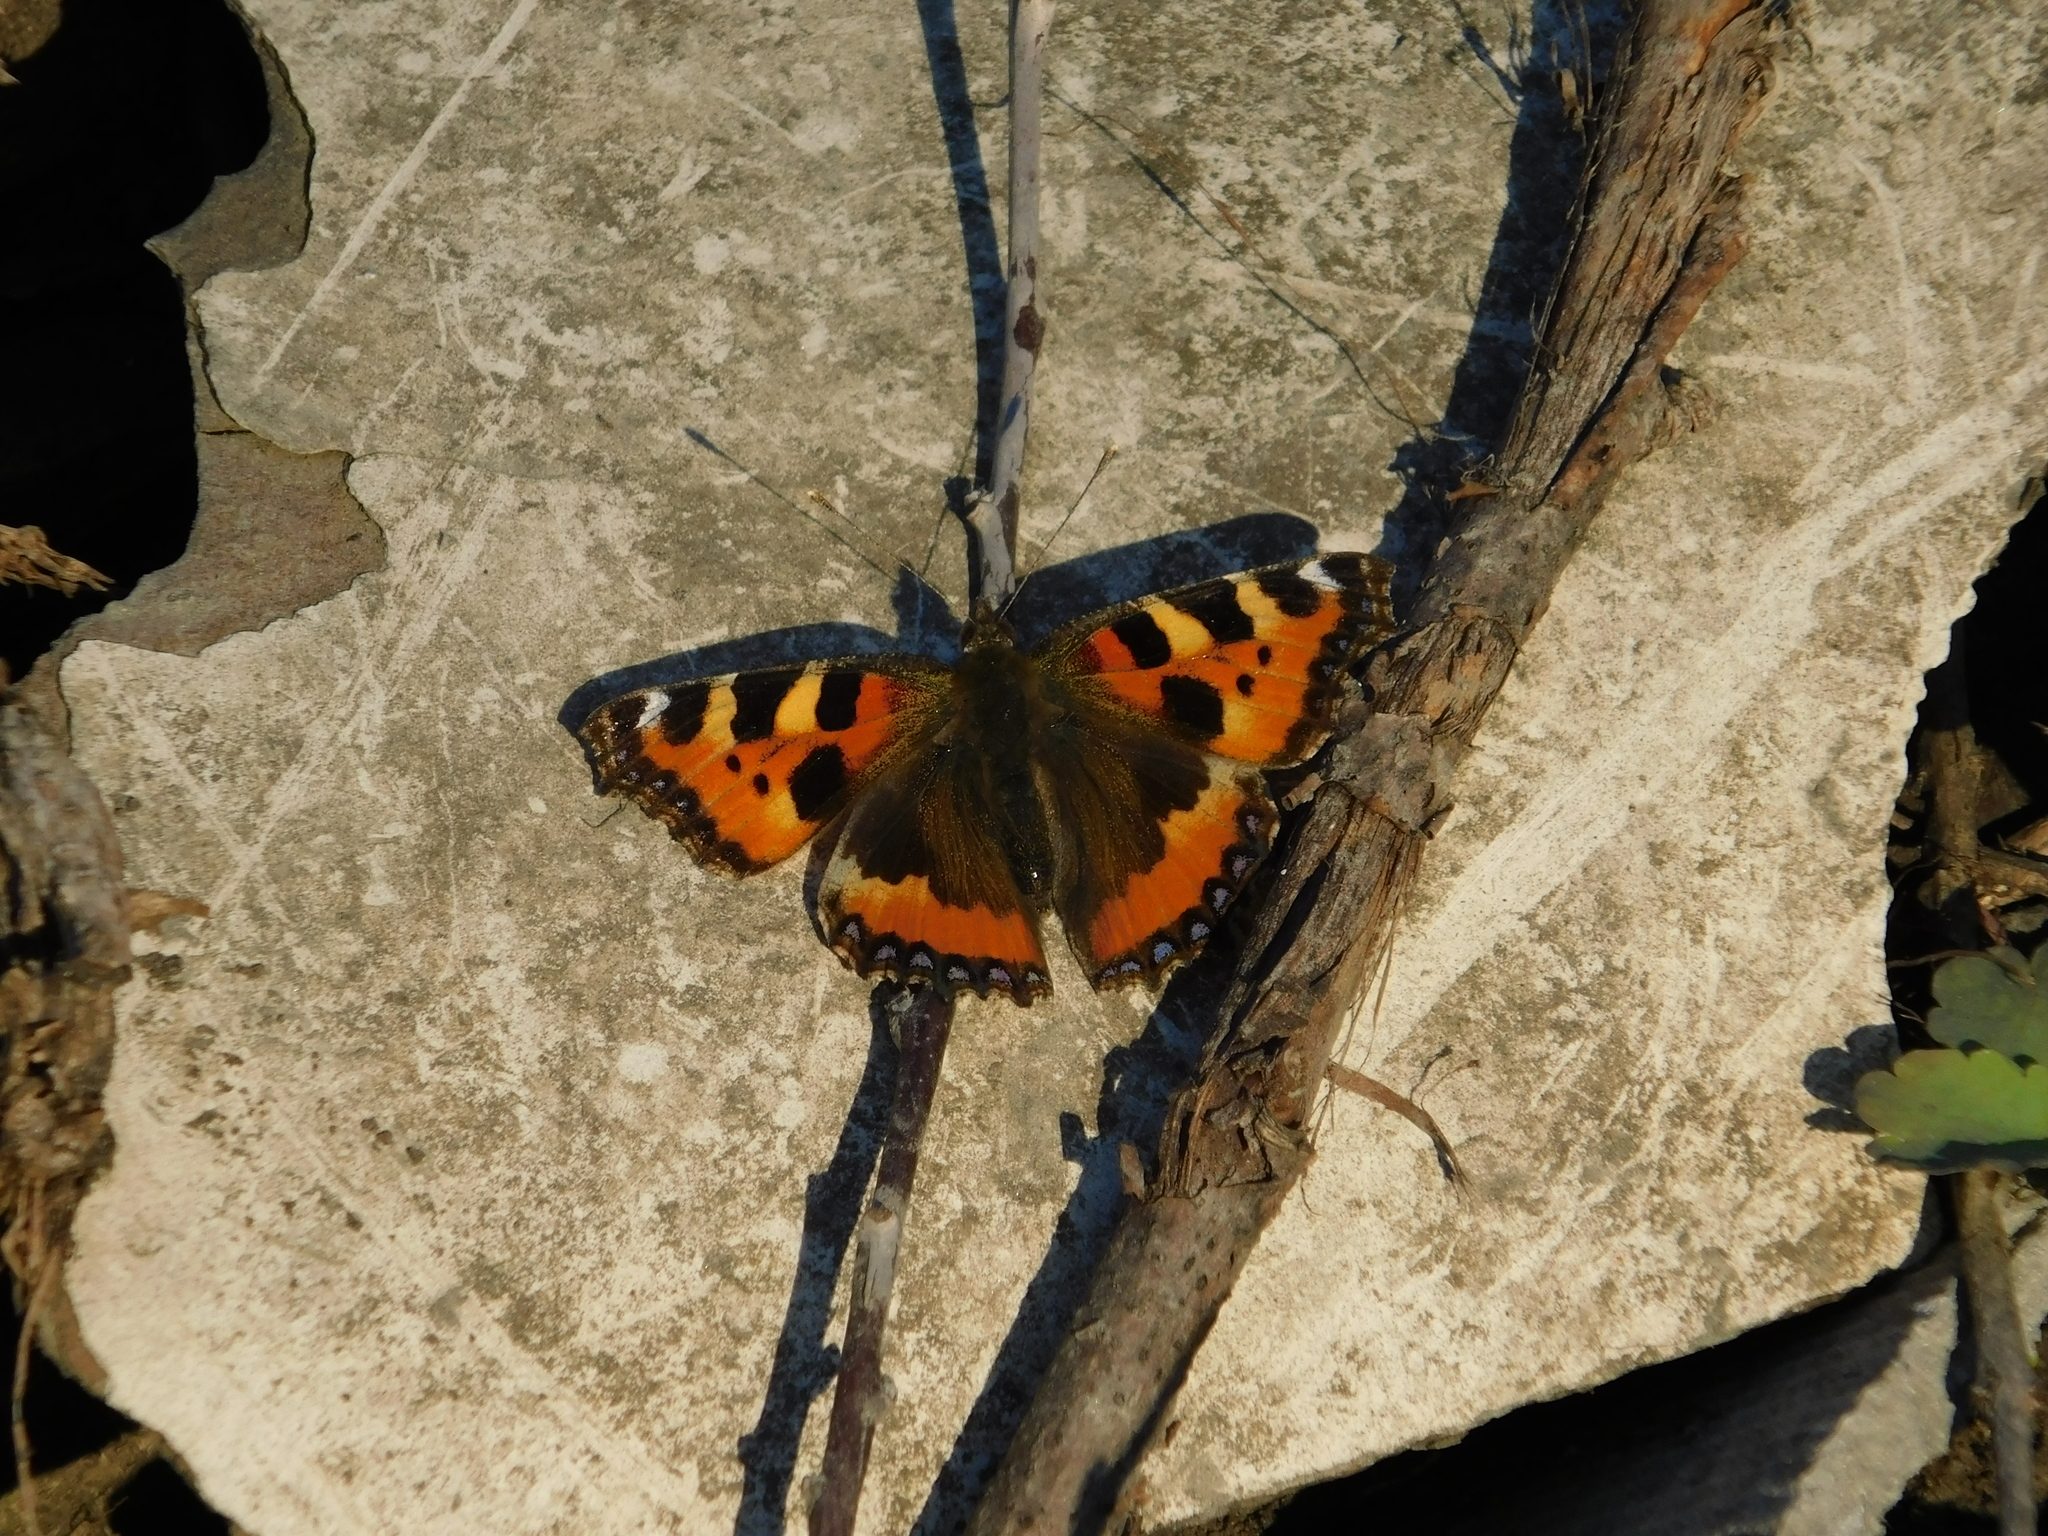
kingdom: Animalia
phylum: Arthropoda
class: Insecta
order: Lepidoptera
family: Nymphalidae
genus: Aglais
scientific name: Aglais urticae
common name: Small tortoiseshell
